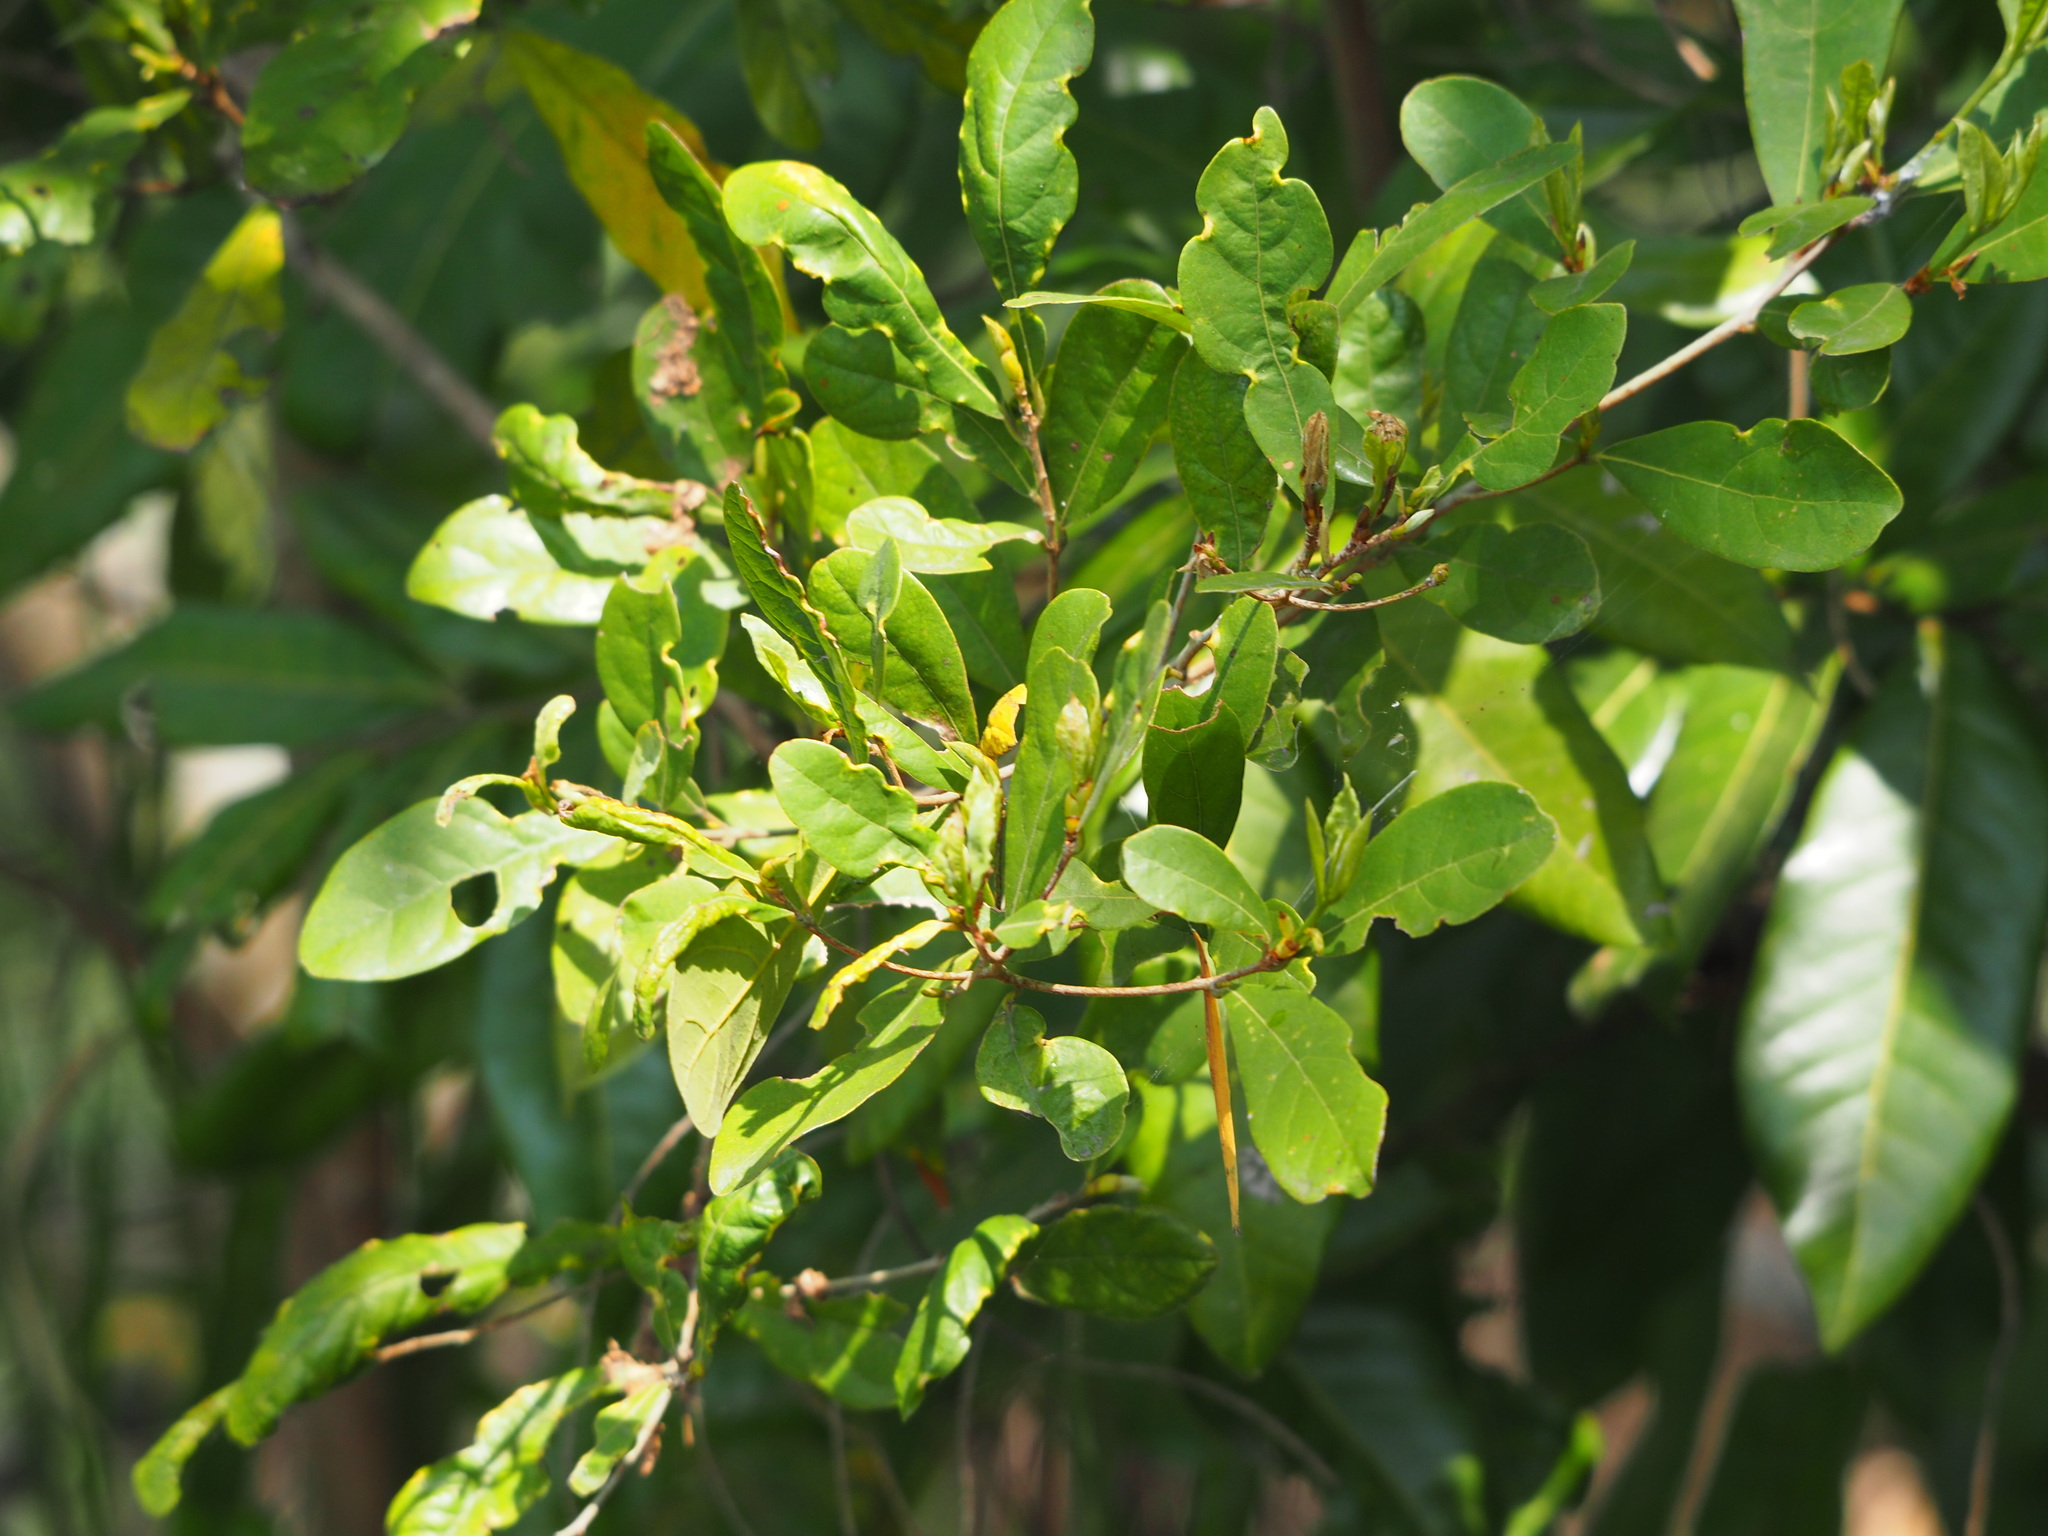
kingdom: Plantae
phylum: Tracheophyta
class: Magnoliopsida
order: Laurales
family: Lauraceae
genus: Litsea
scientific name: Litsea hypophaea
